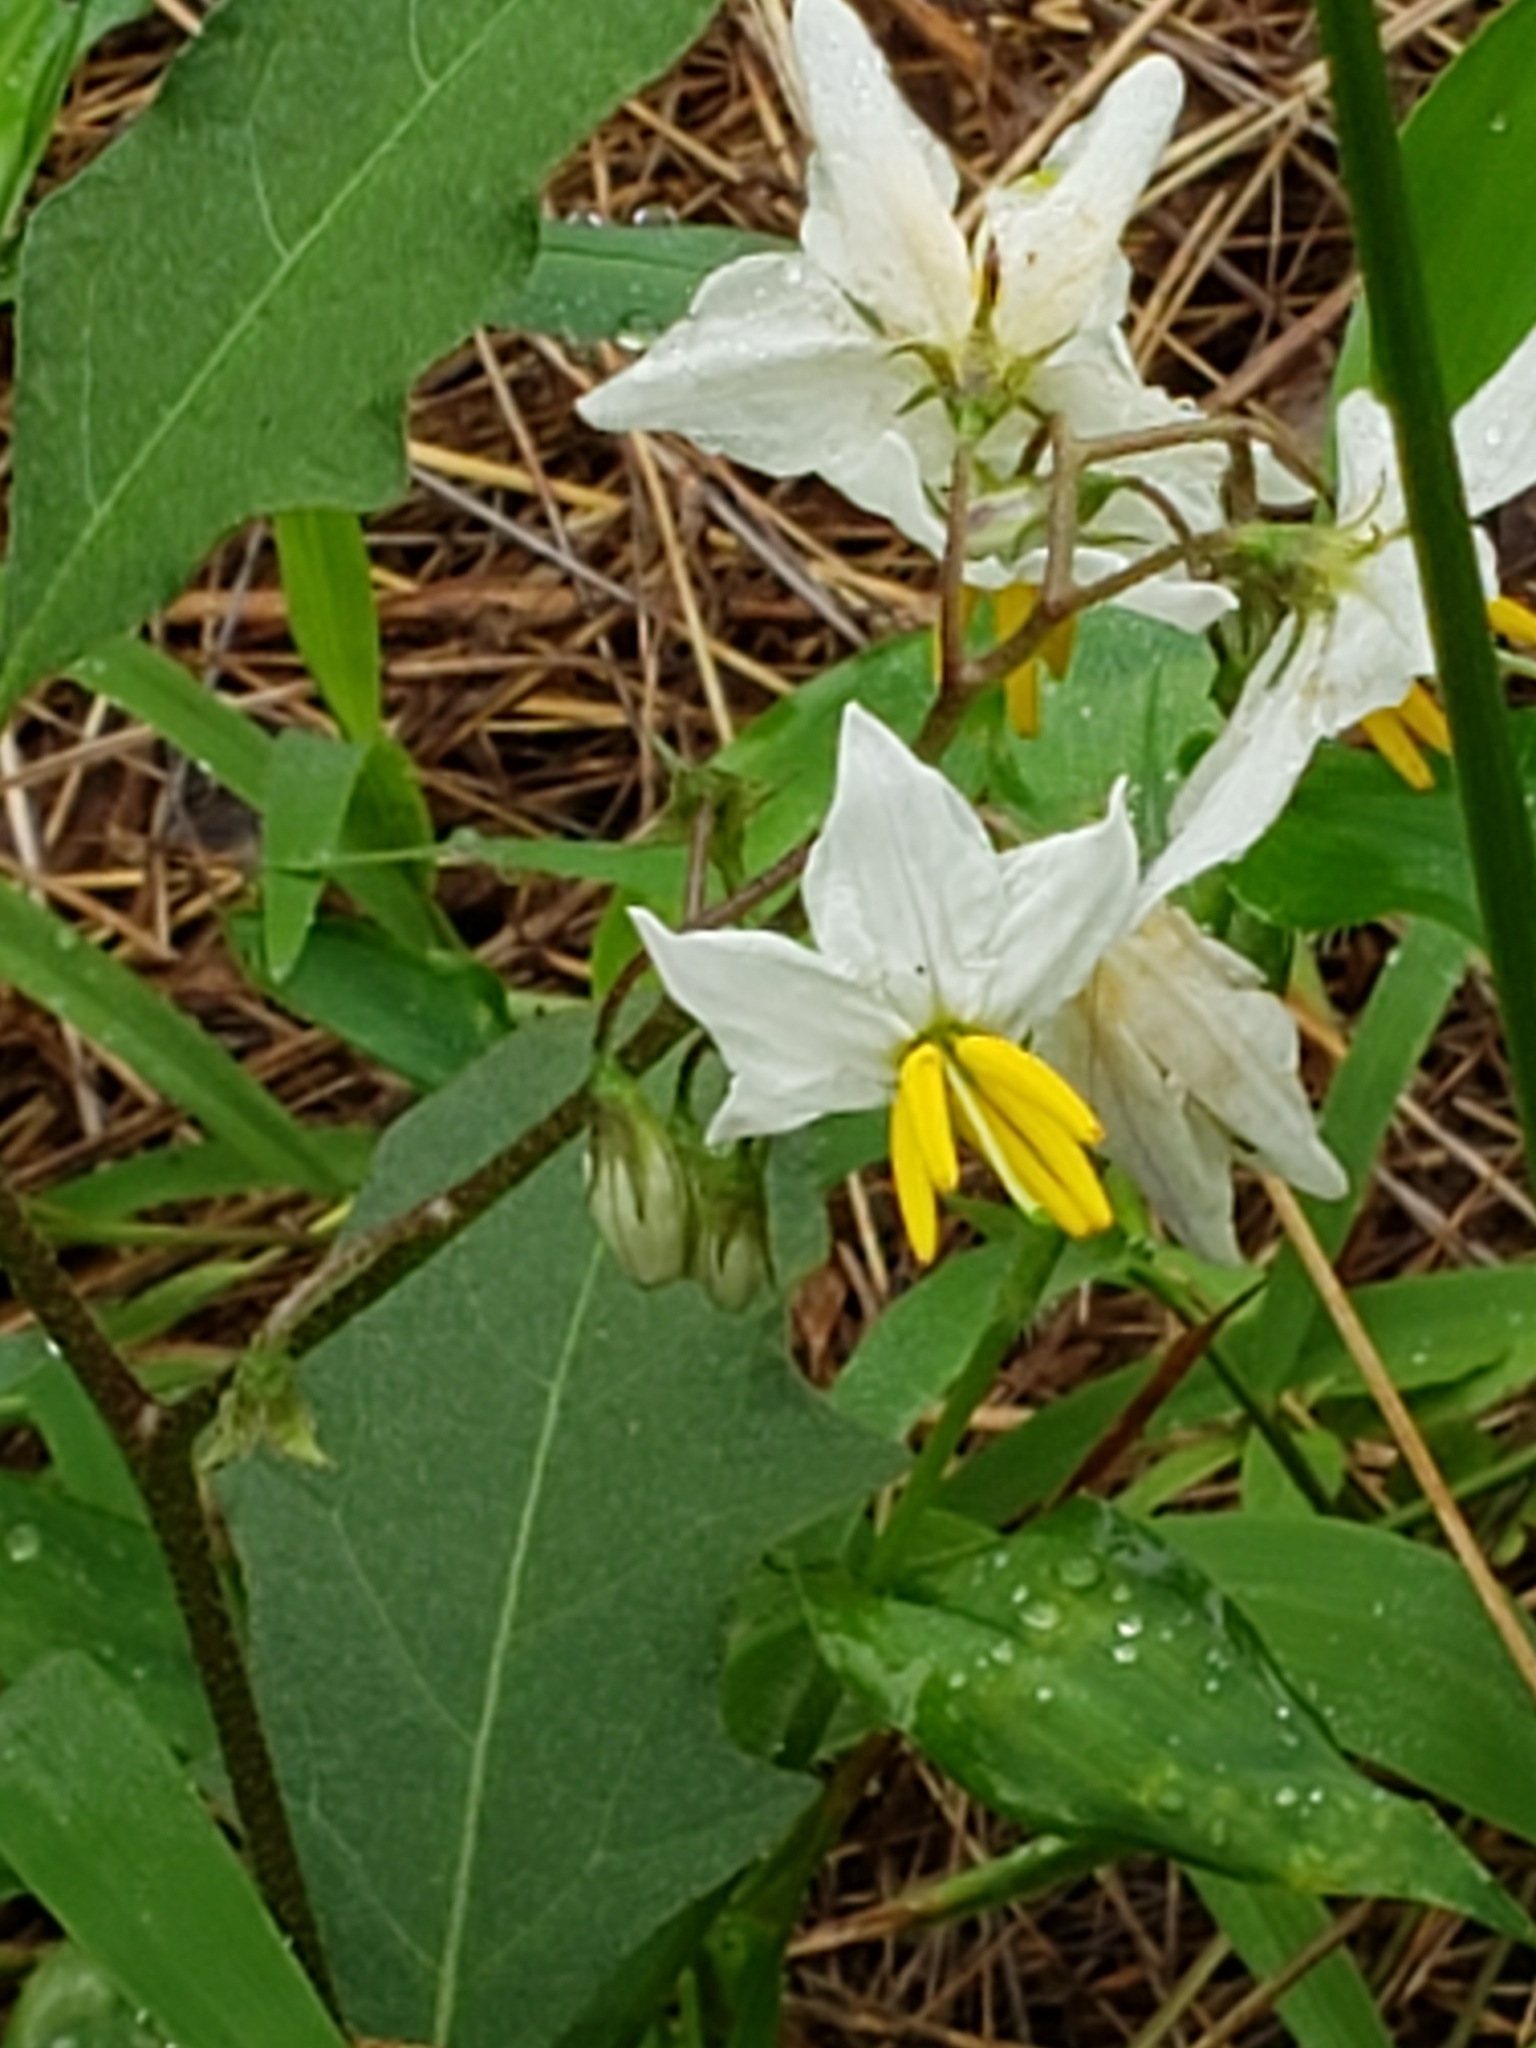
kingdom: Plantae
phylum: Tracheophyta
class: Magnoliopsida
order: Solanales
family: Solanaceae
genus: Solanum
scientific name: Solanum carolinense
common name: Horse-nettle
